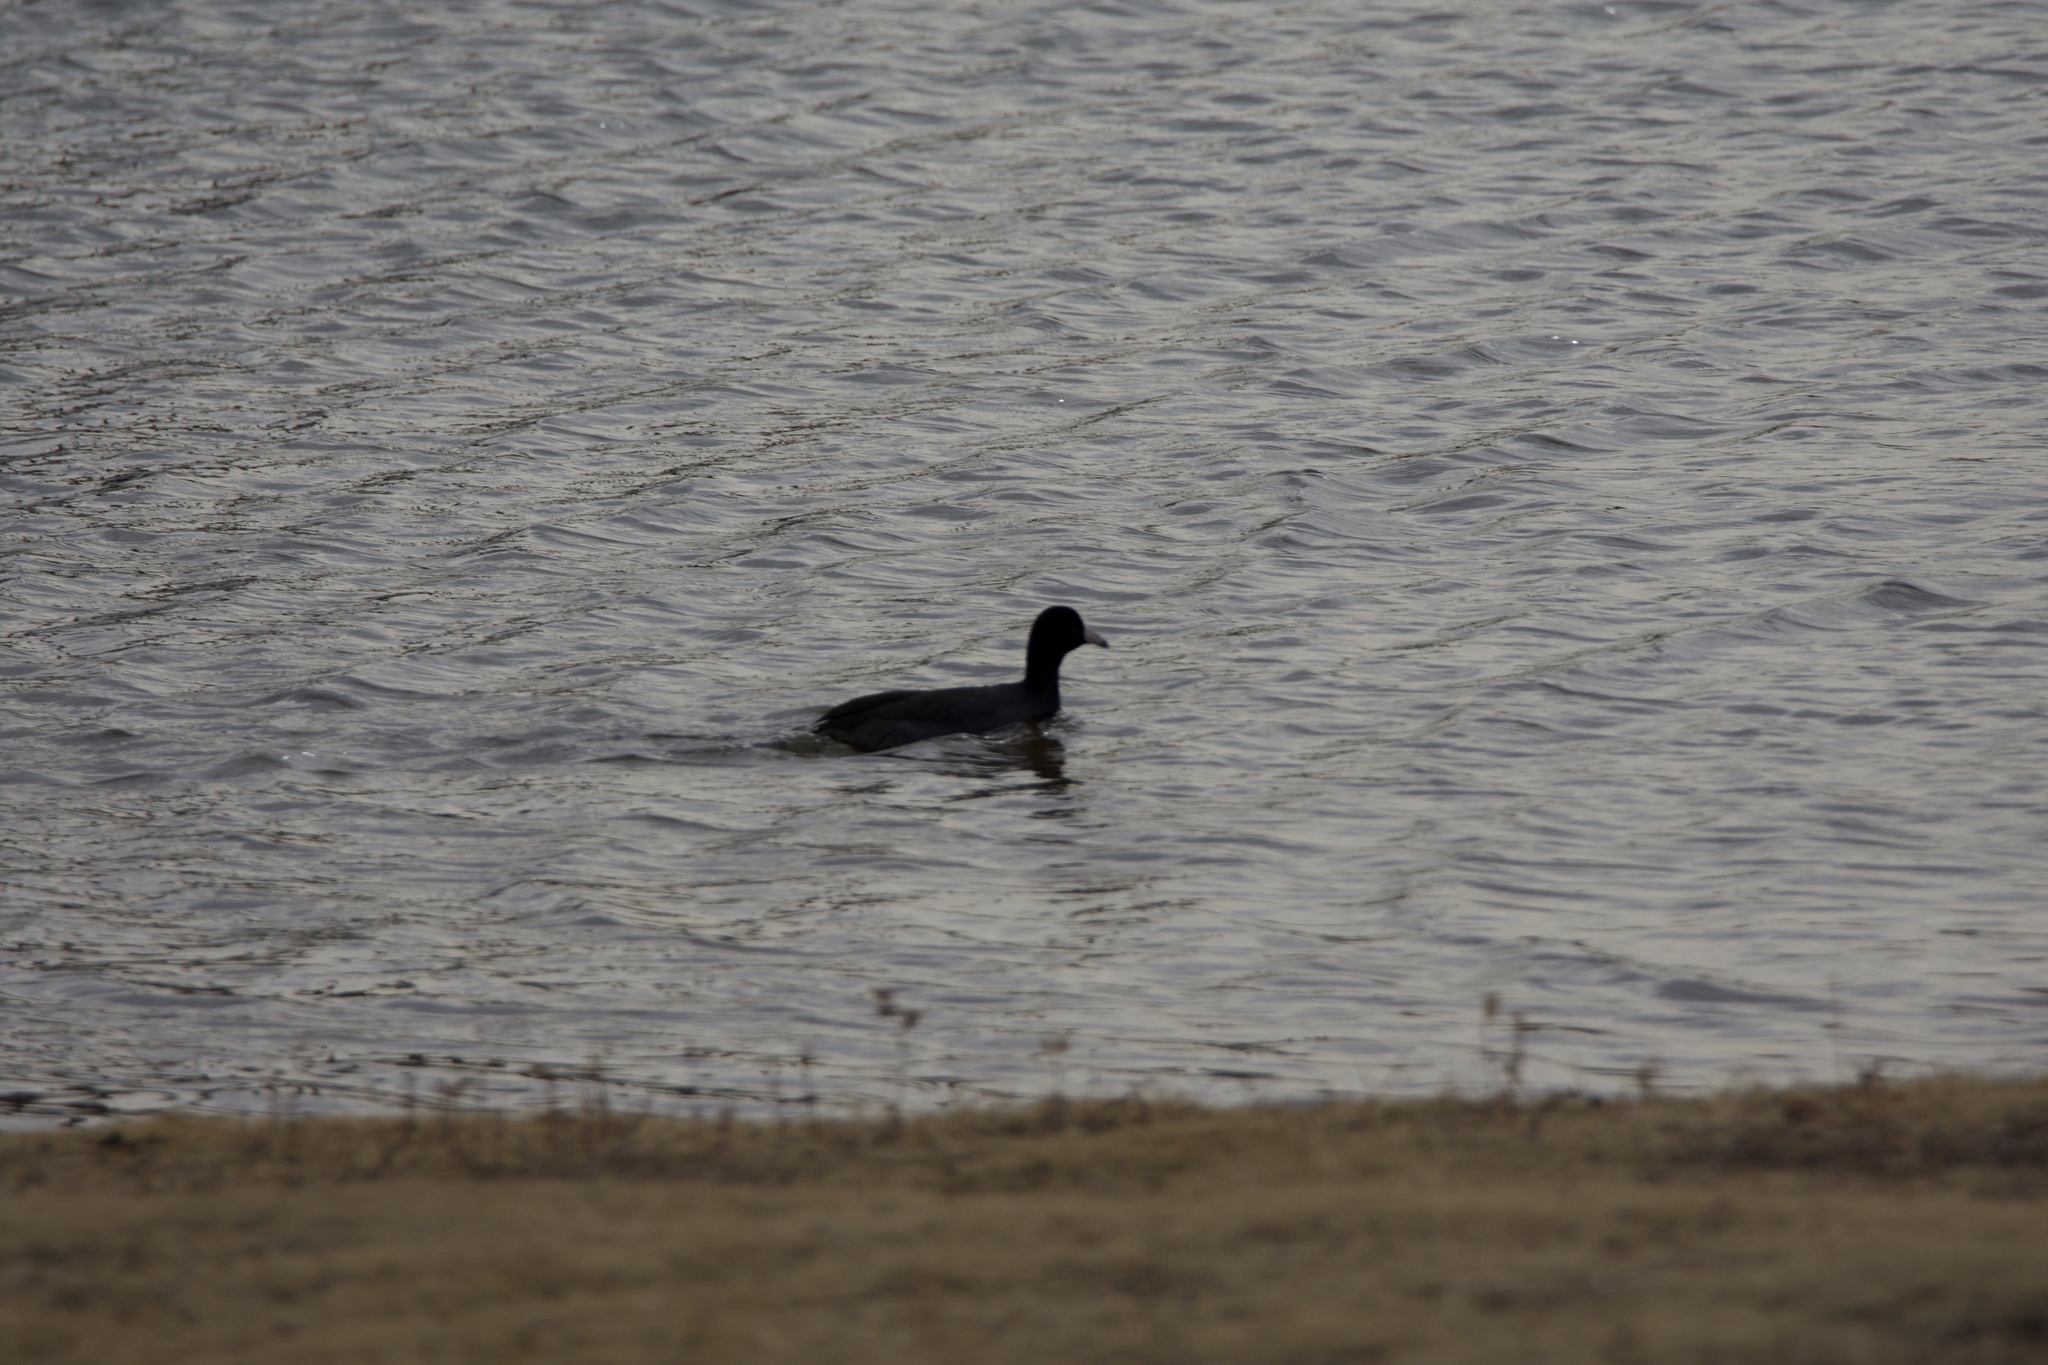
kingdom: Animalia
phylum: Chordata
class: Aves
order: Gruiformes
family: Rallidae
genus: Fulica
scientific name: Fulica americana
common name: American coot
